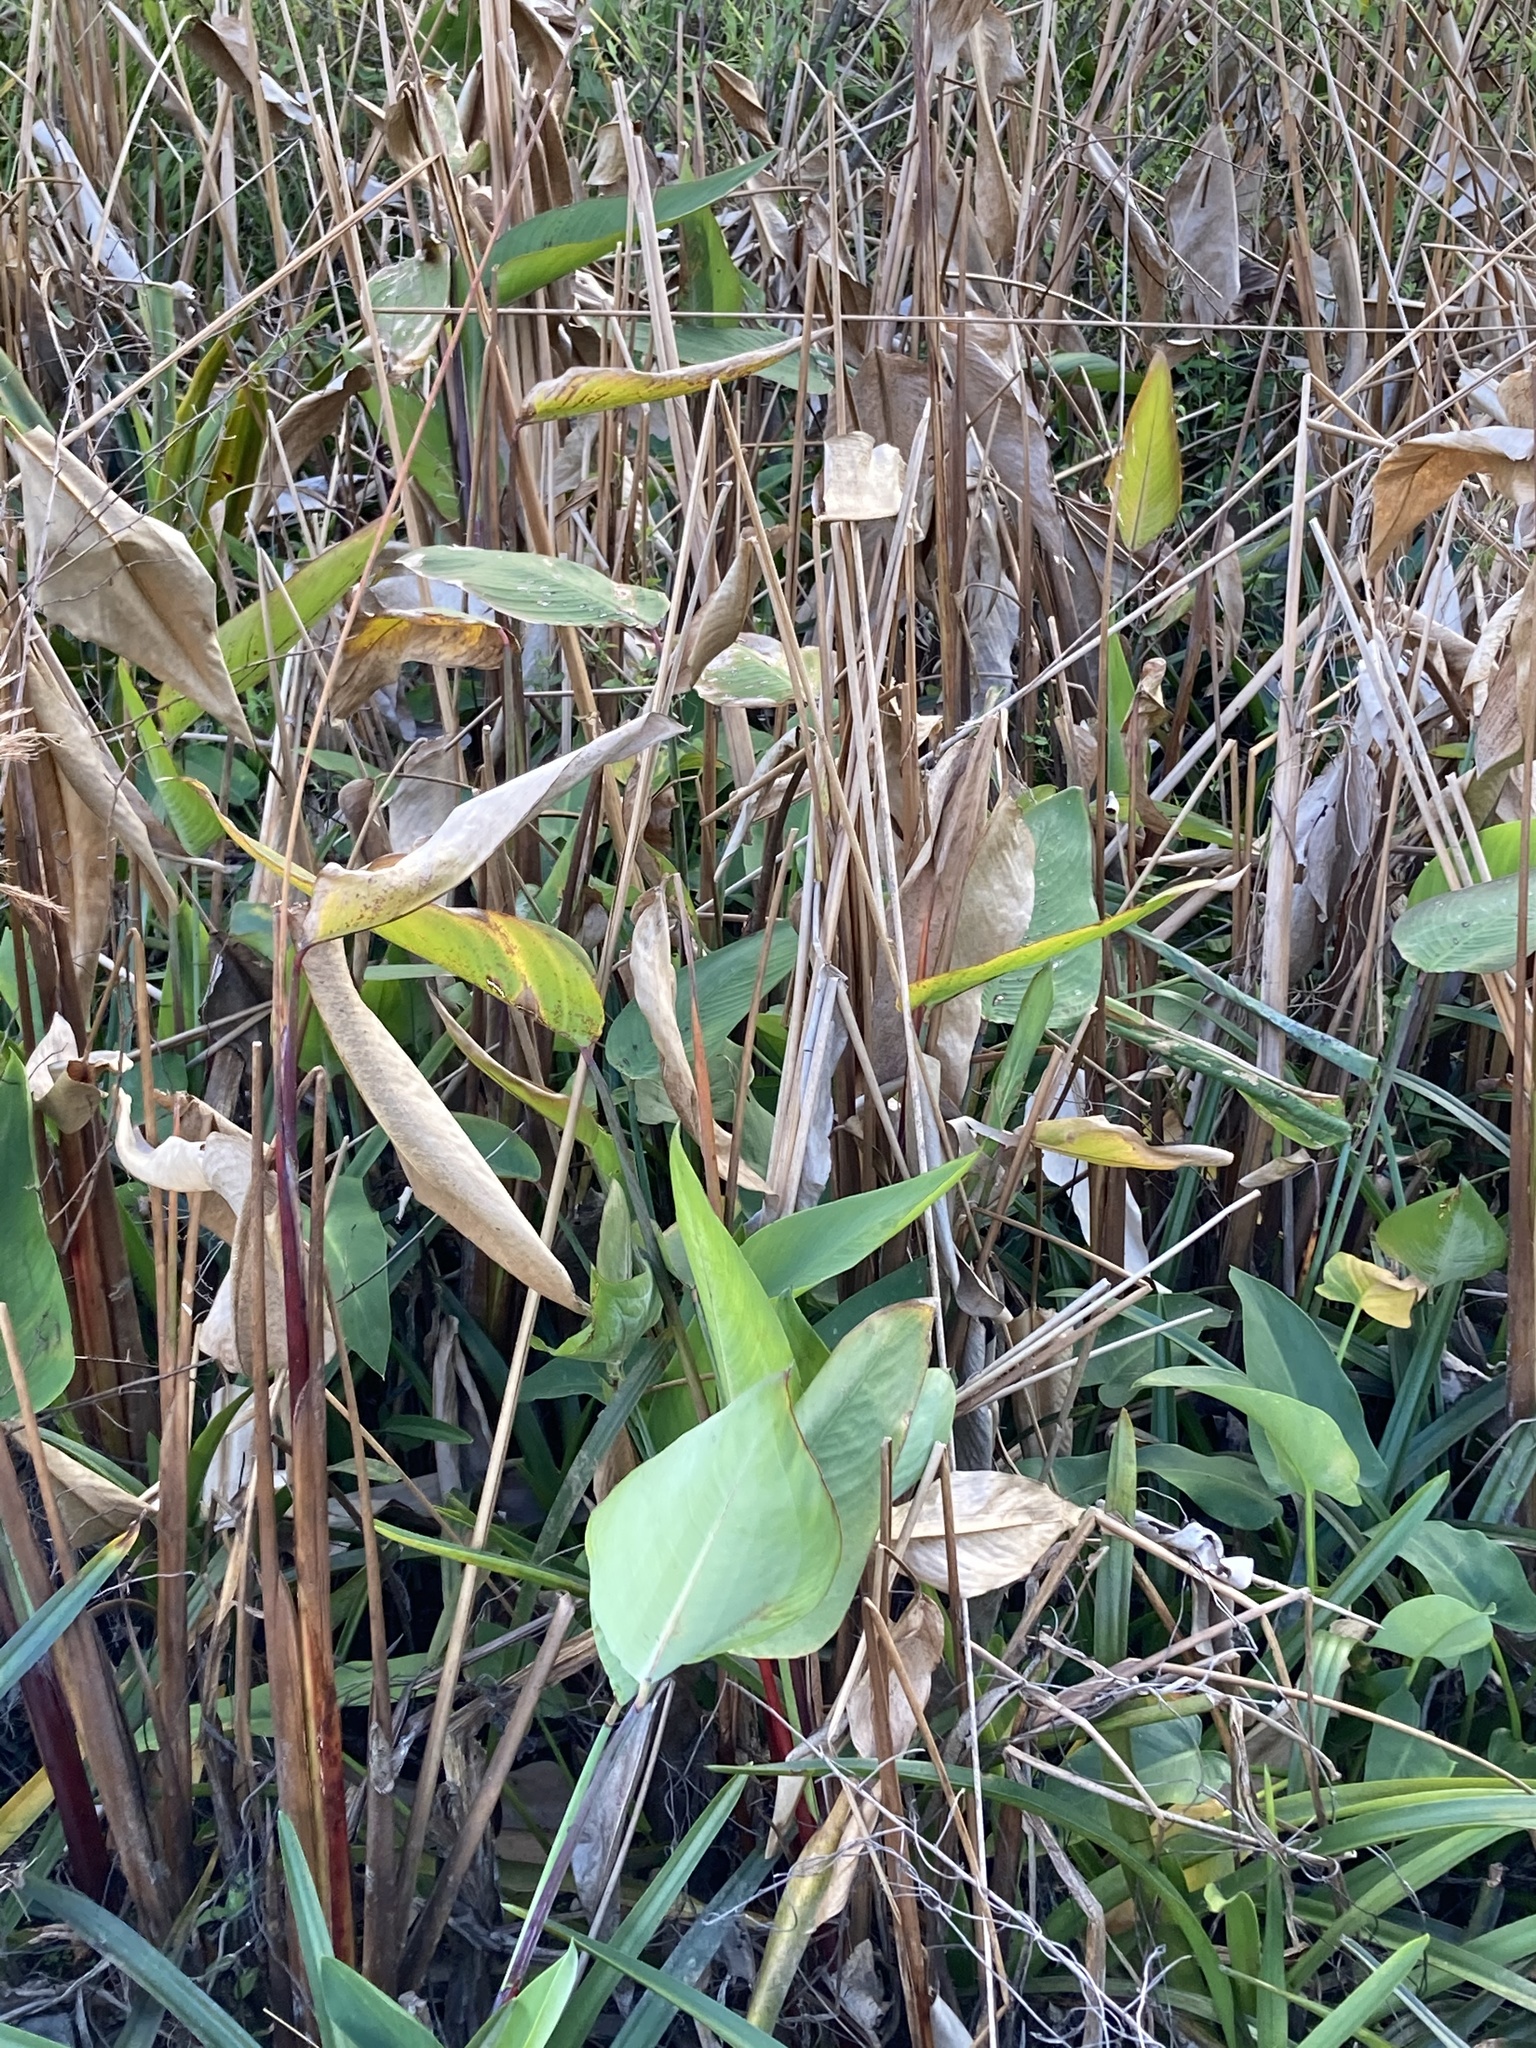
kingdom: Plantae
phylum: Tracheophyta
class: Liliopsida
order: Zingiberales
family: Marantaceae
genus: Thalia
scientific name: Thalia geniculata
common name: Arrowroot
